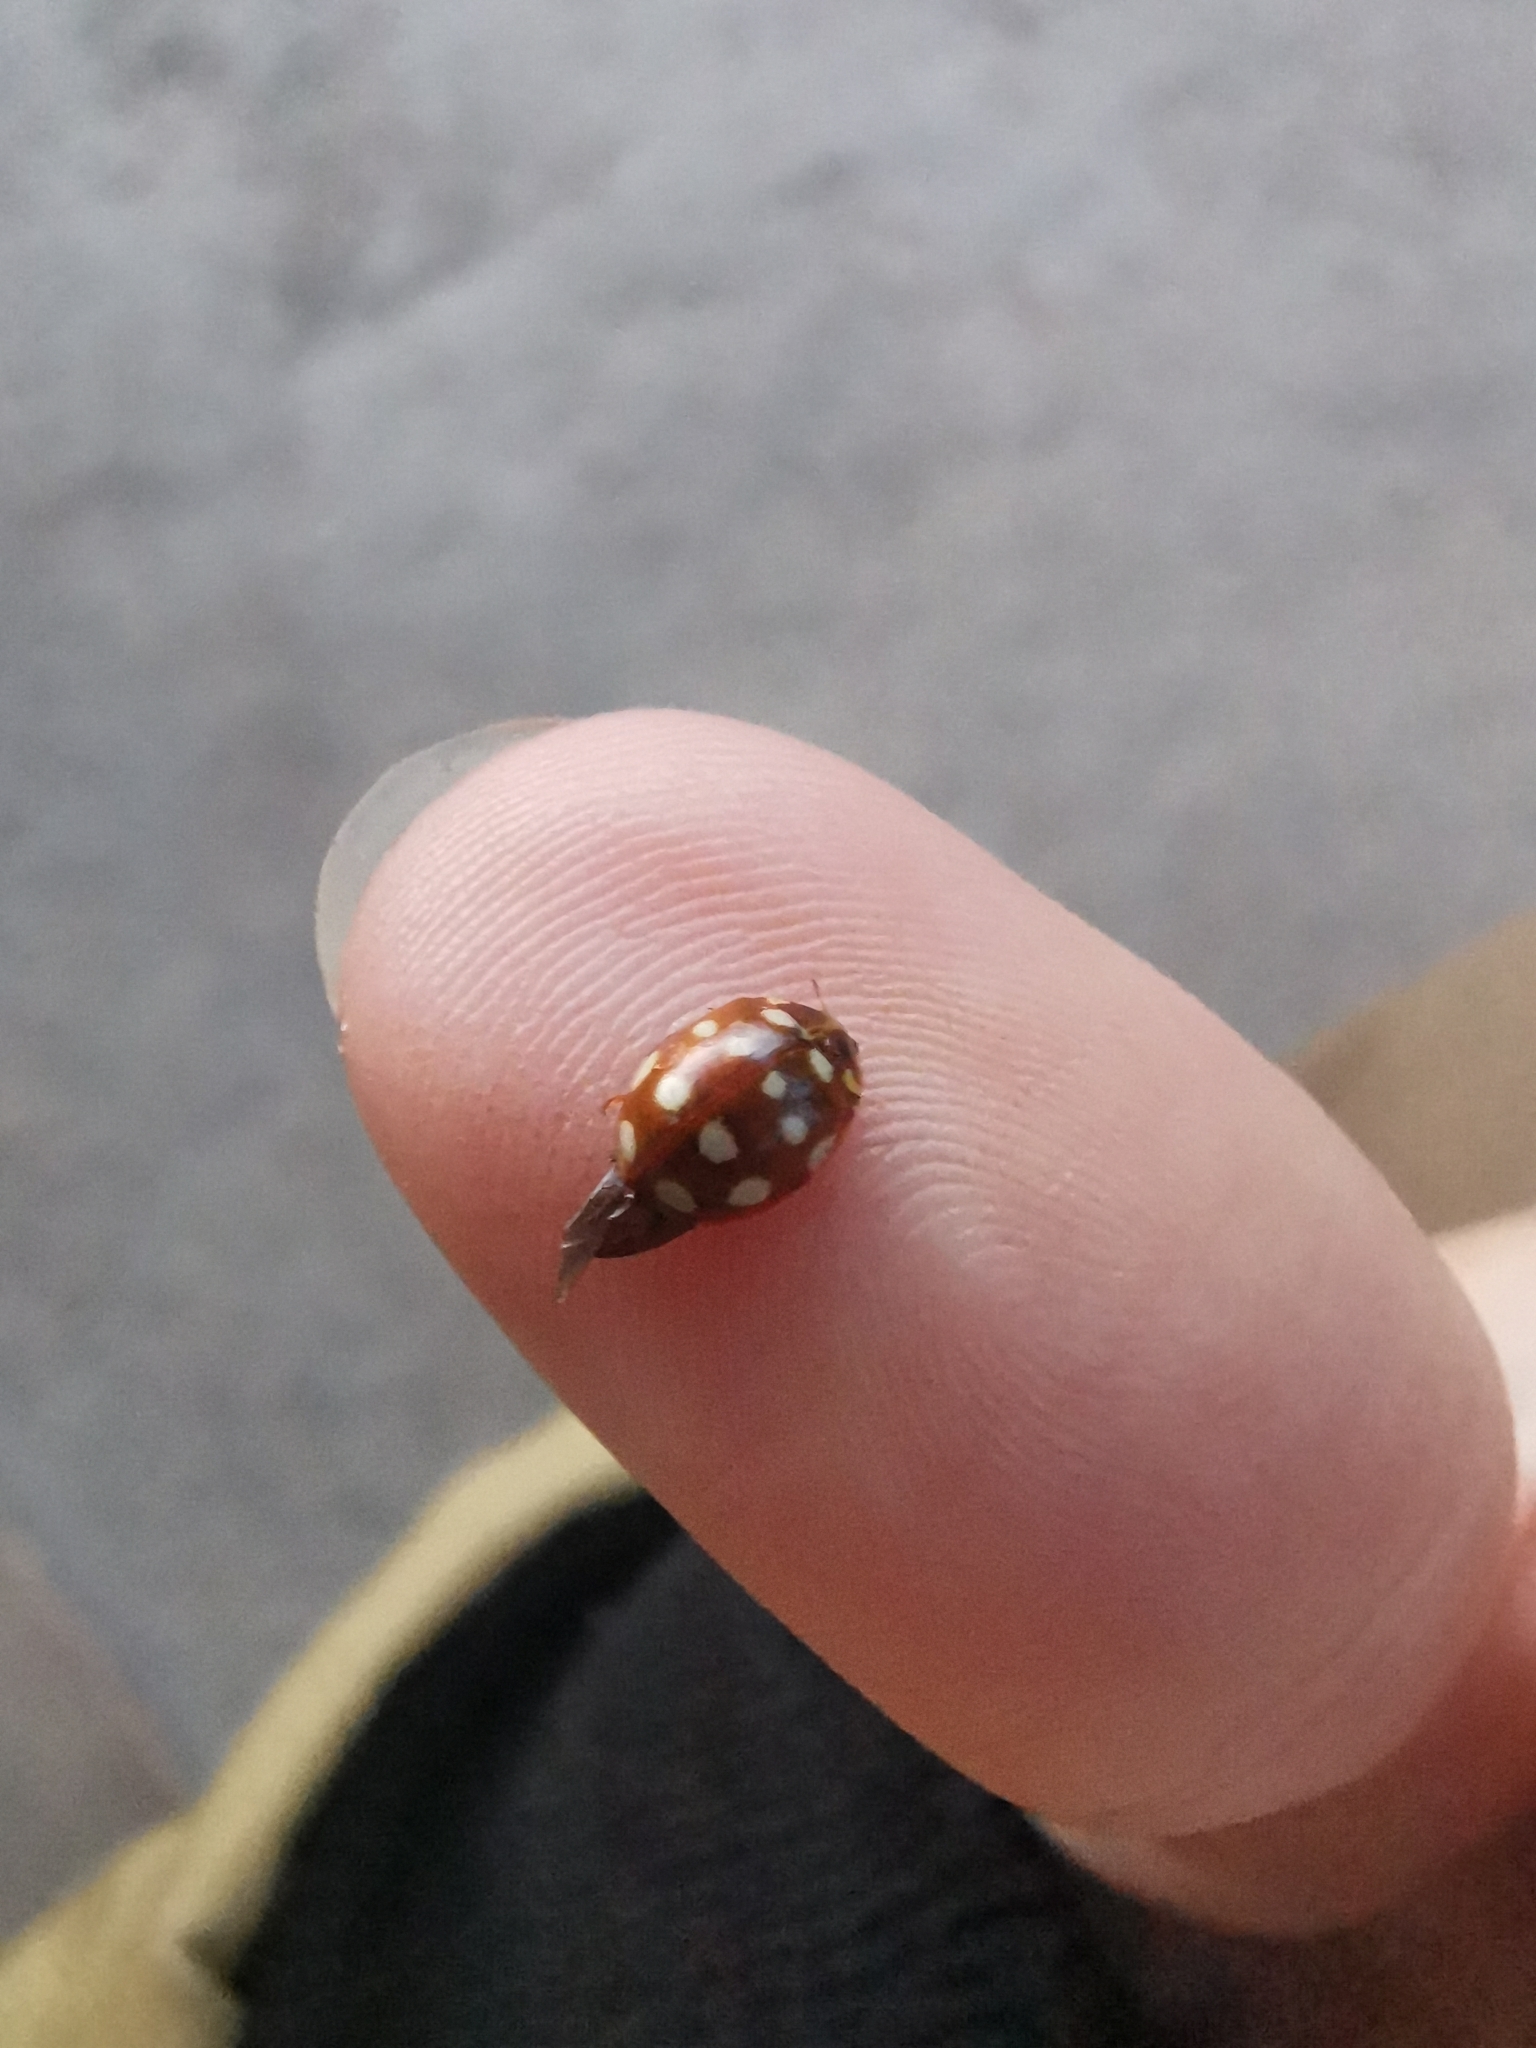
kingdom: Animalia
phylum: Arthropoda
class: Insecta
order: Coleoptera
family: Coccinellidae
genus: Calvia
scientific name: Calvia quatuordecimguttata
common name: Cream-spot ladybird
